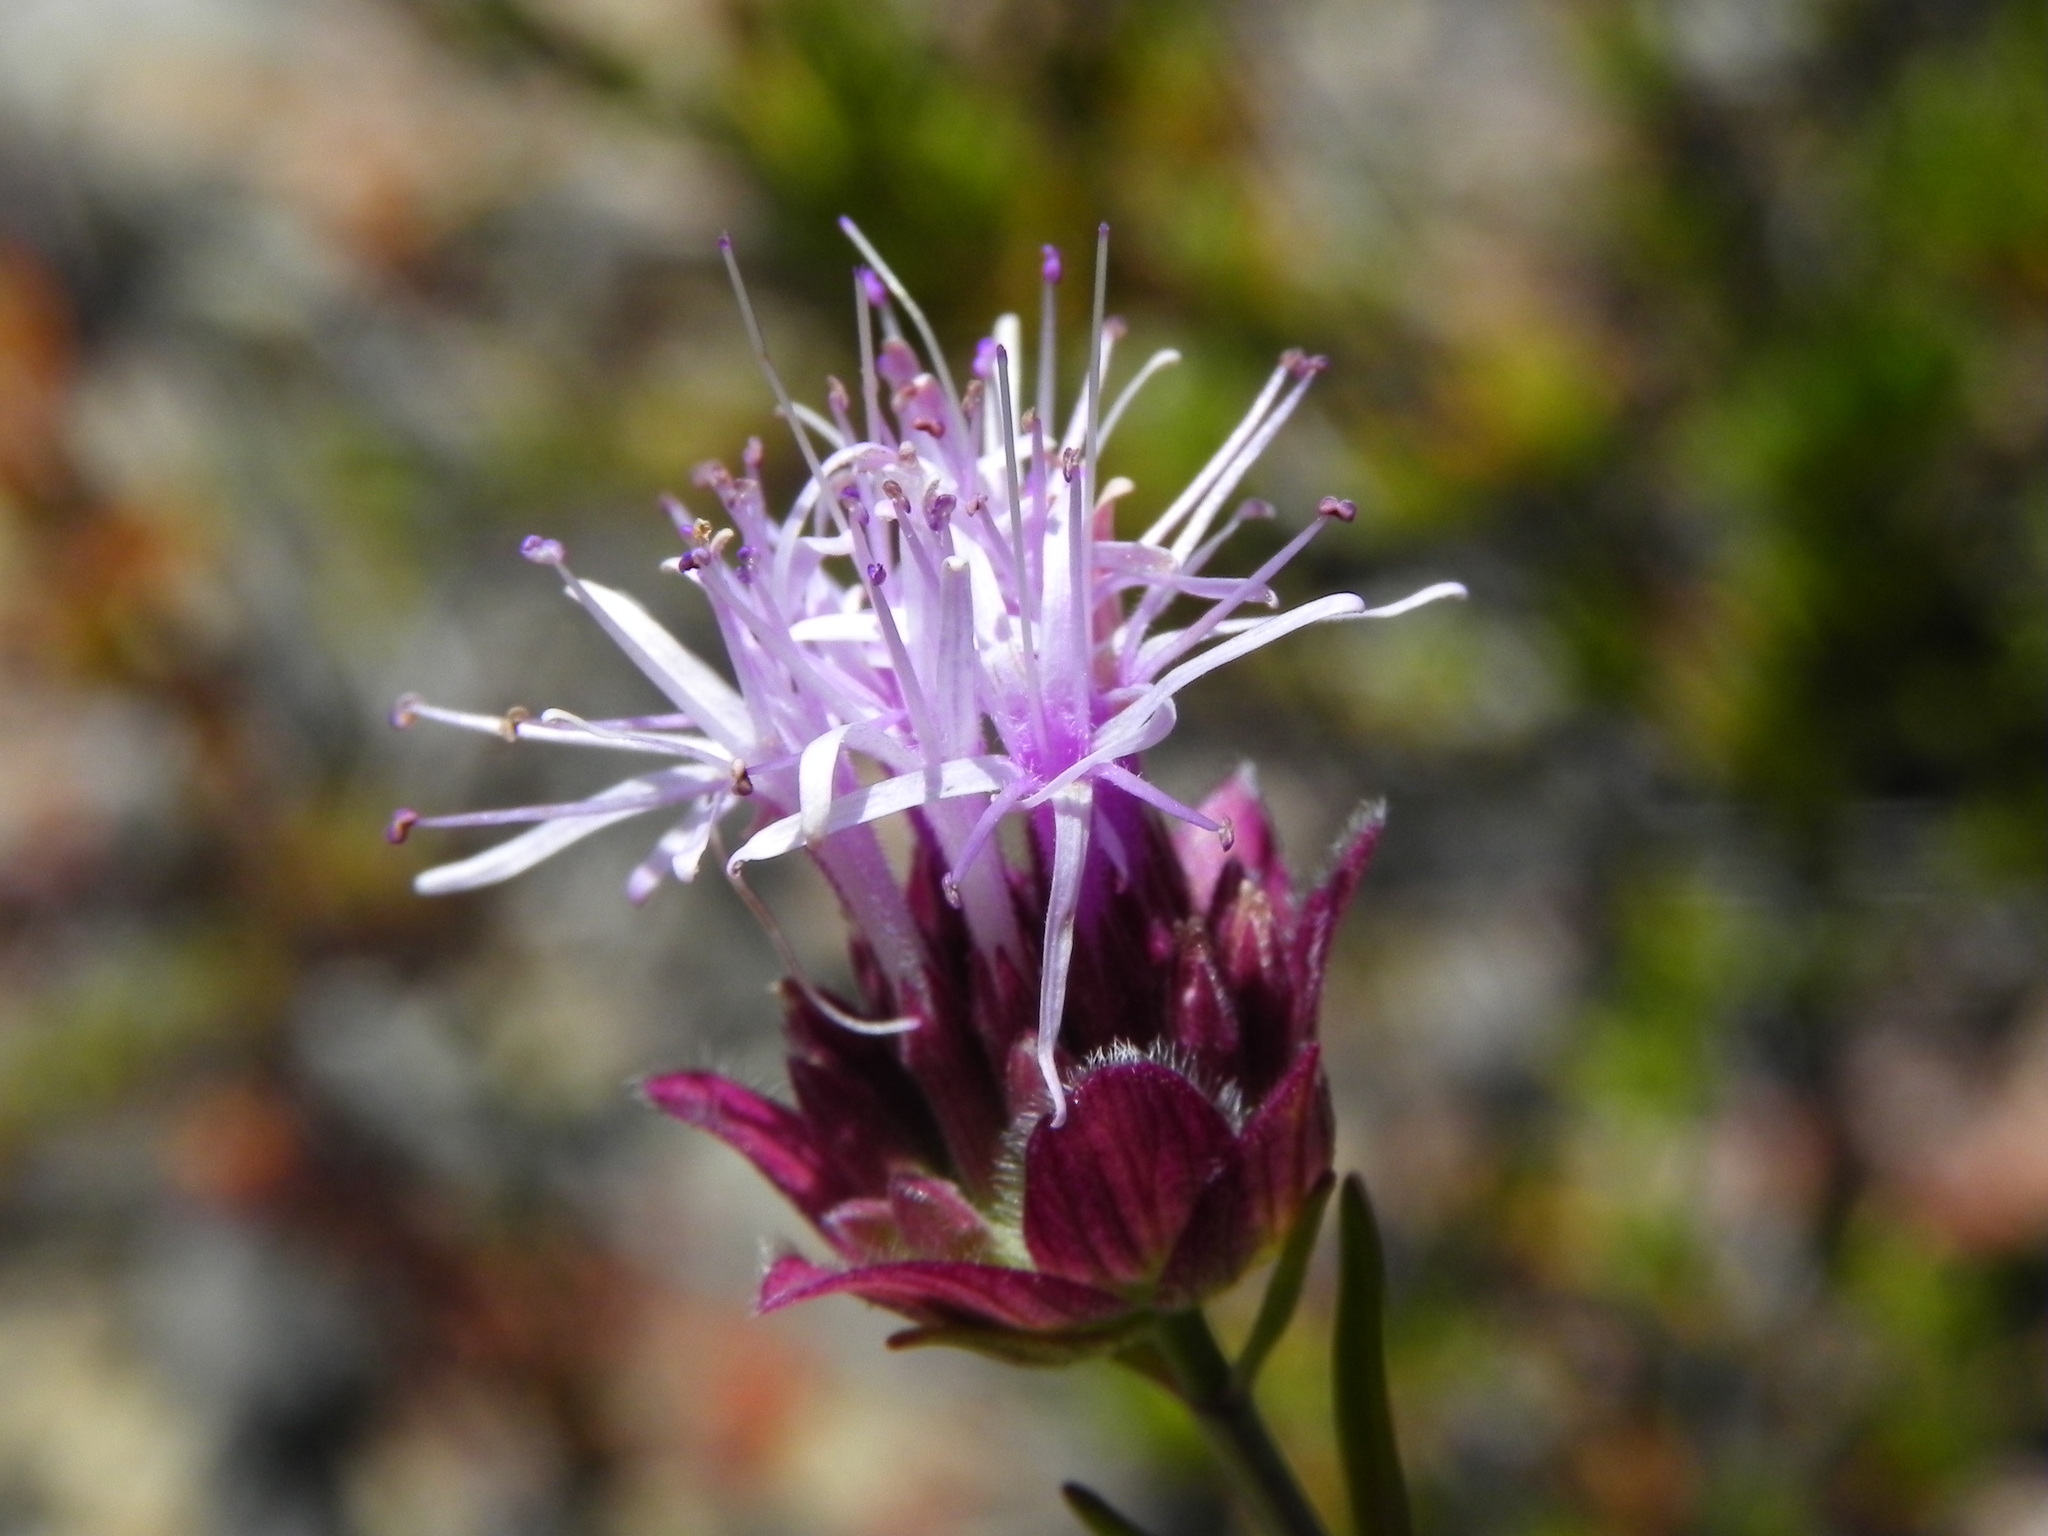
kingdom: Plantae
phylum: Tracheophyta
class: Magnoliopsida
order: Lamiales
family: Lamiaceae
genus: Monardella
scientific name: Monardella viminea
